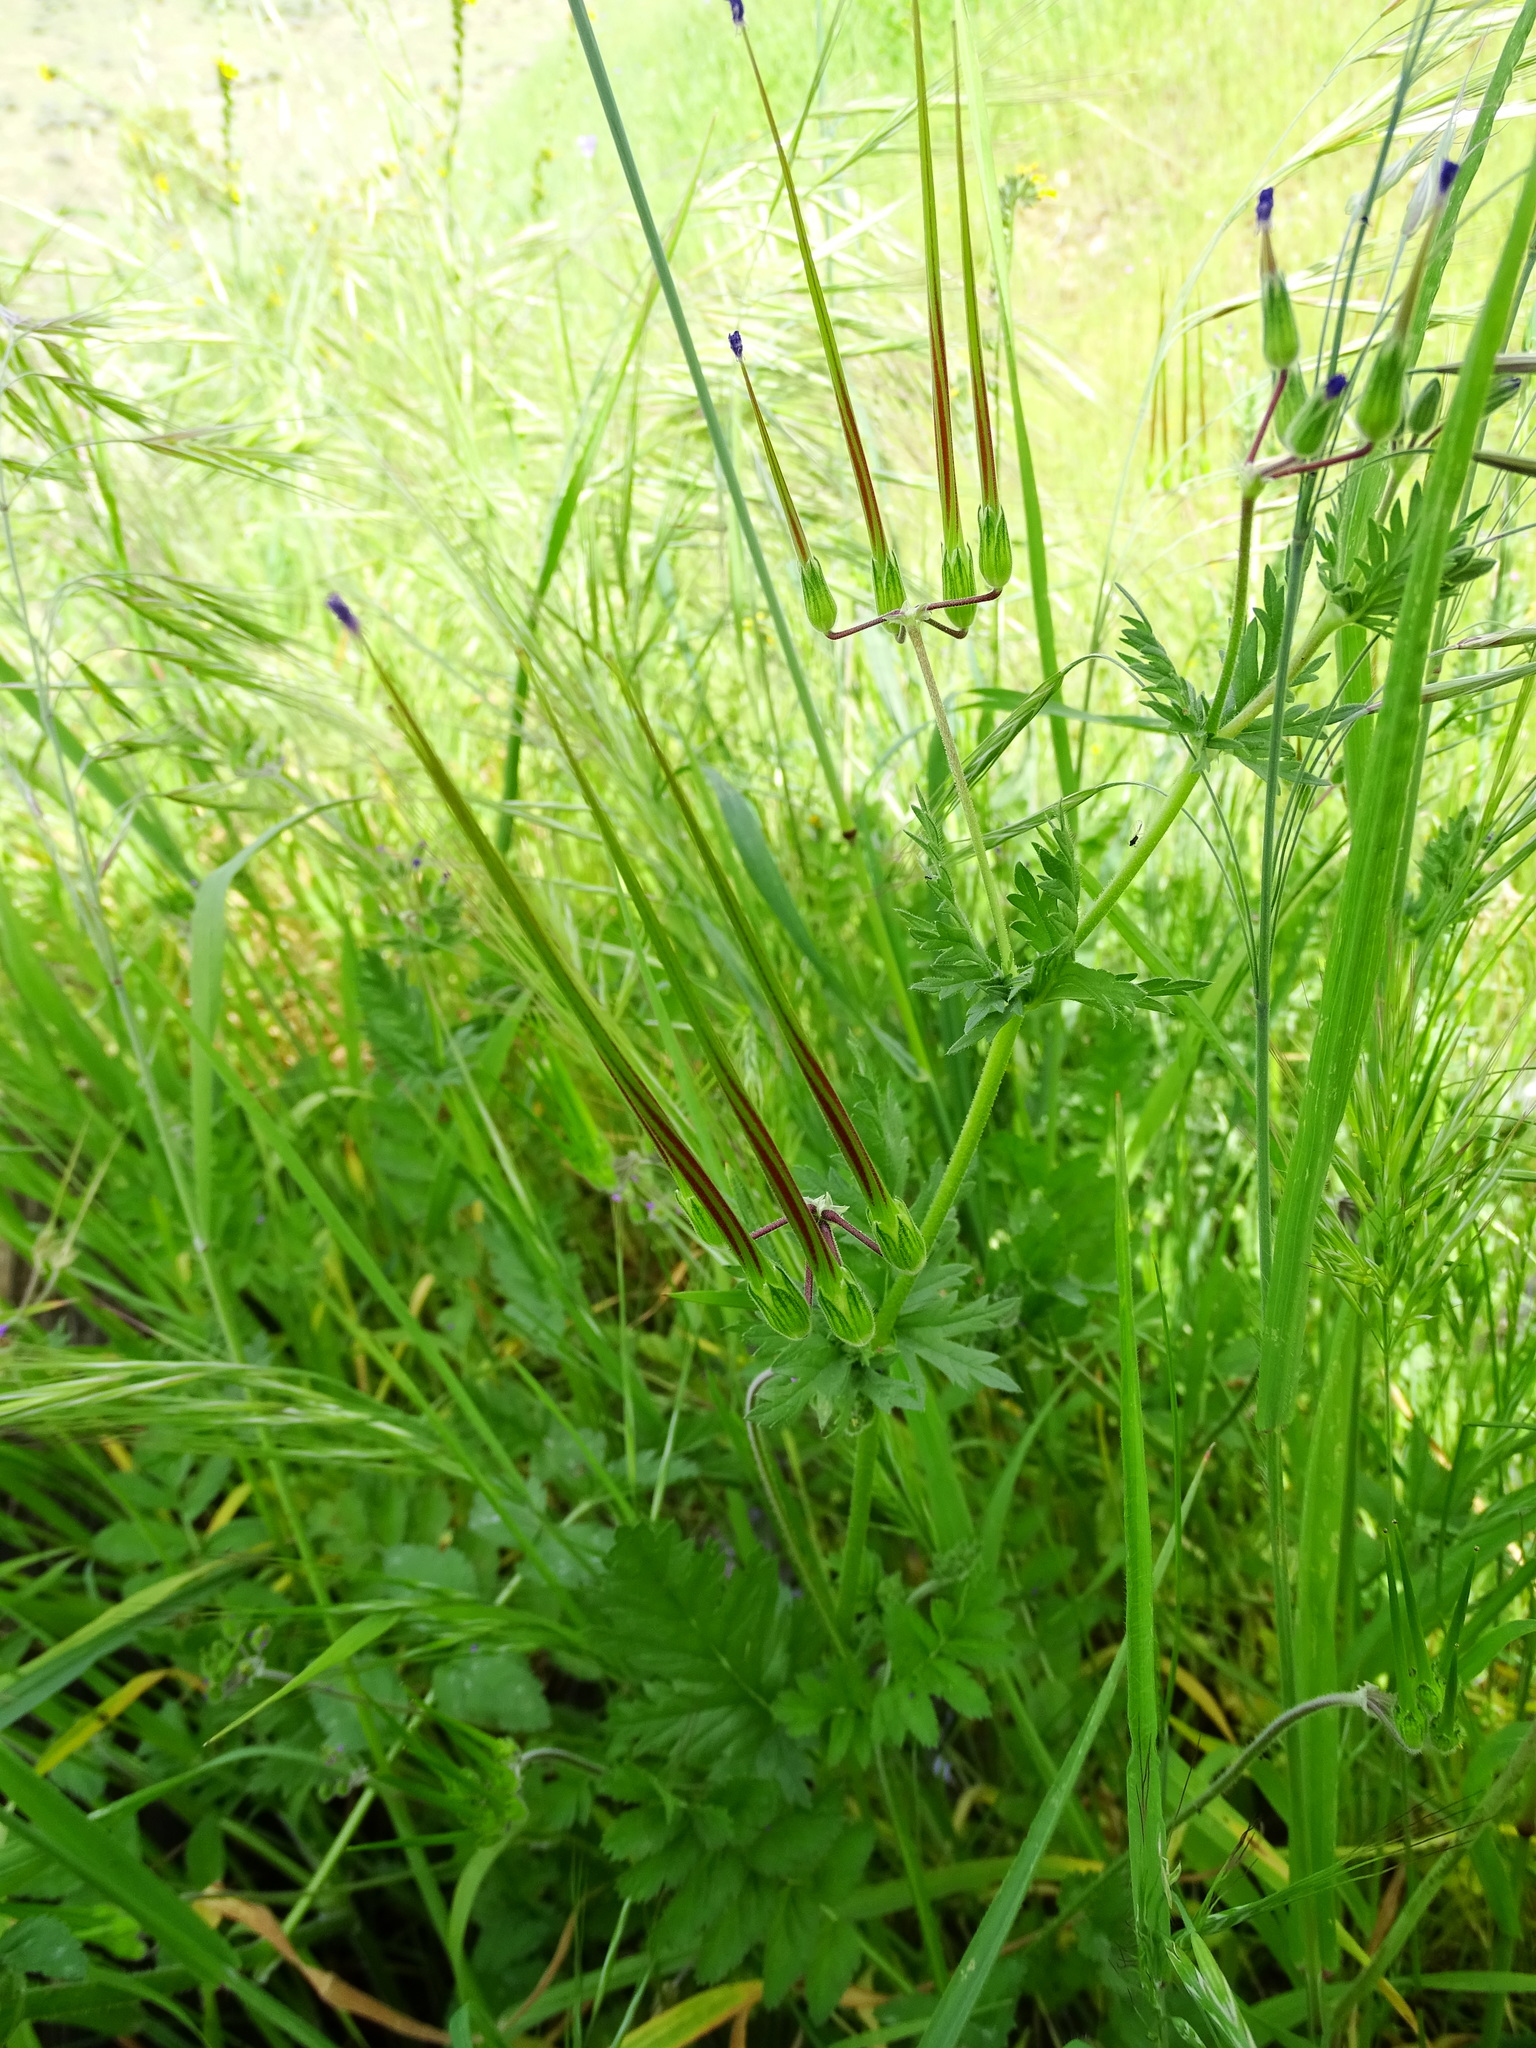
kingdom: Plantae
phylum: Tracheophyta
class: Magnoliopsida
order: Geraniales
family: Geraniaceae
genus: Erodium
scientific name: Erodium brachycarpum
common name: Hairy-pitted stork's-bill
